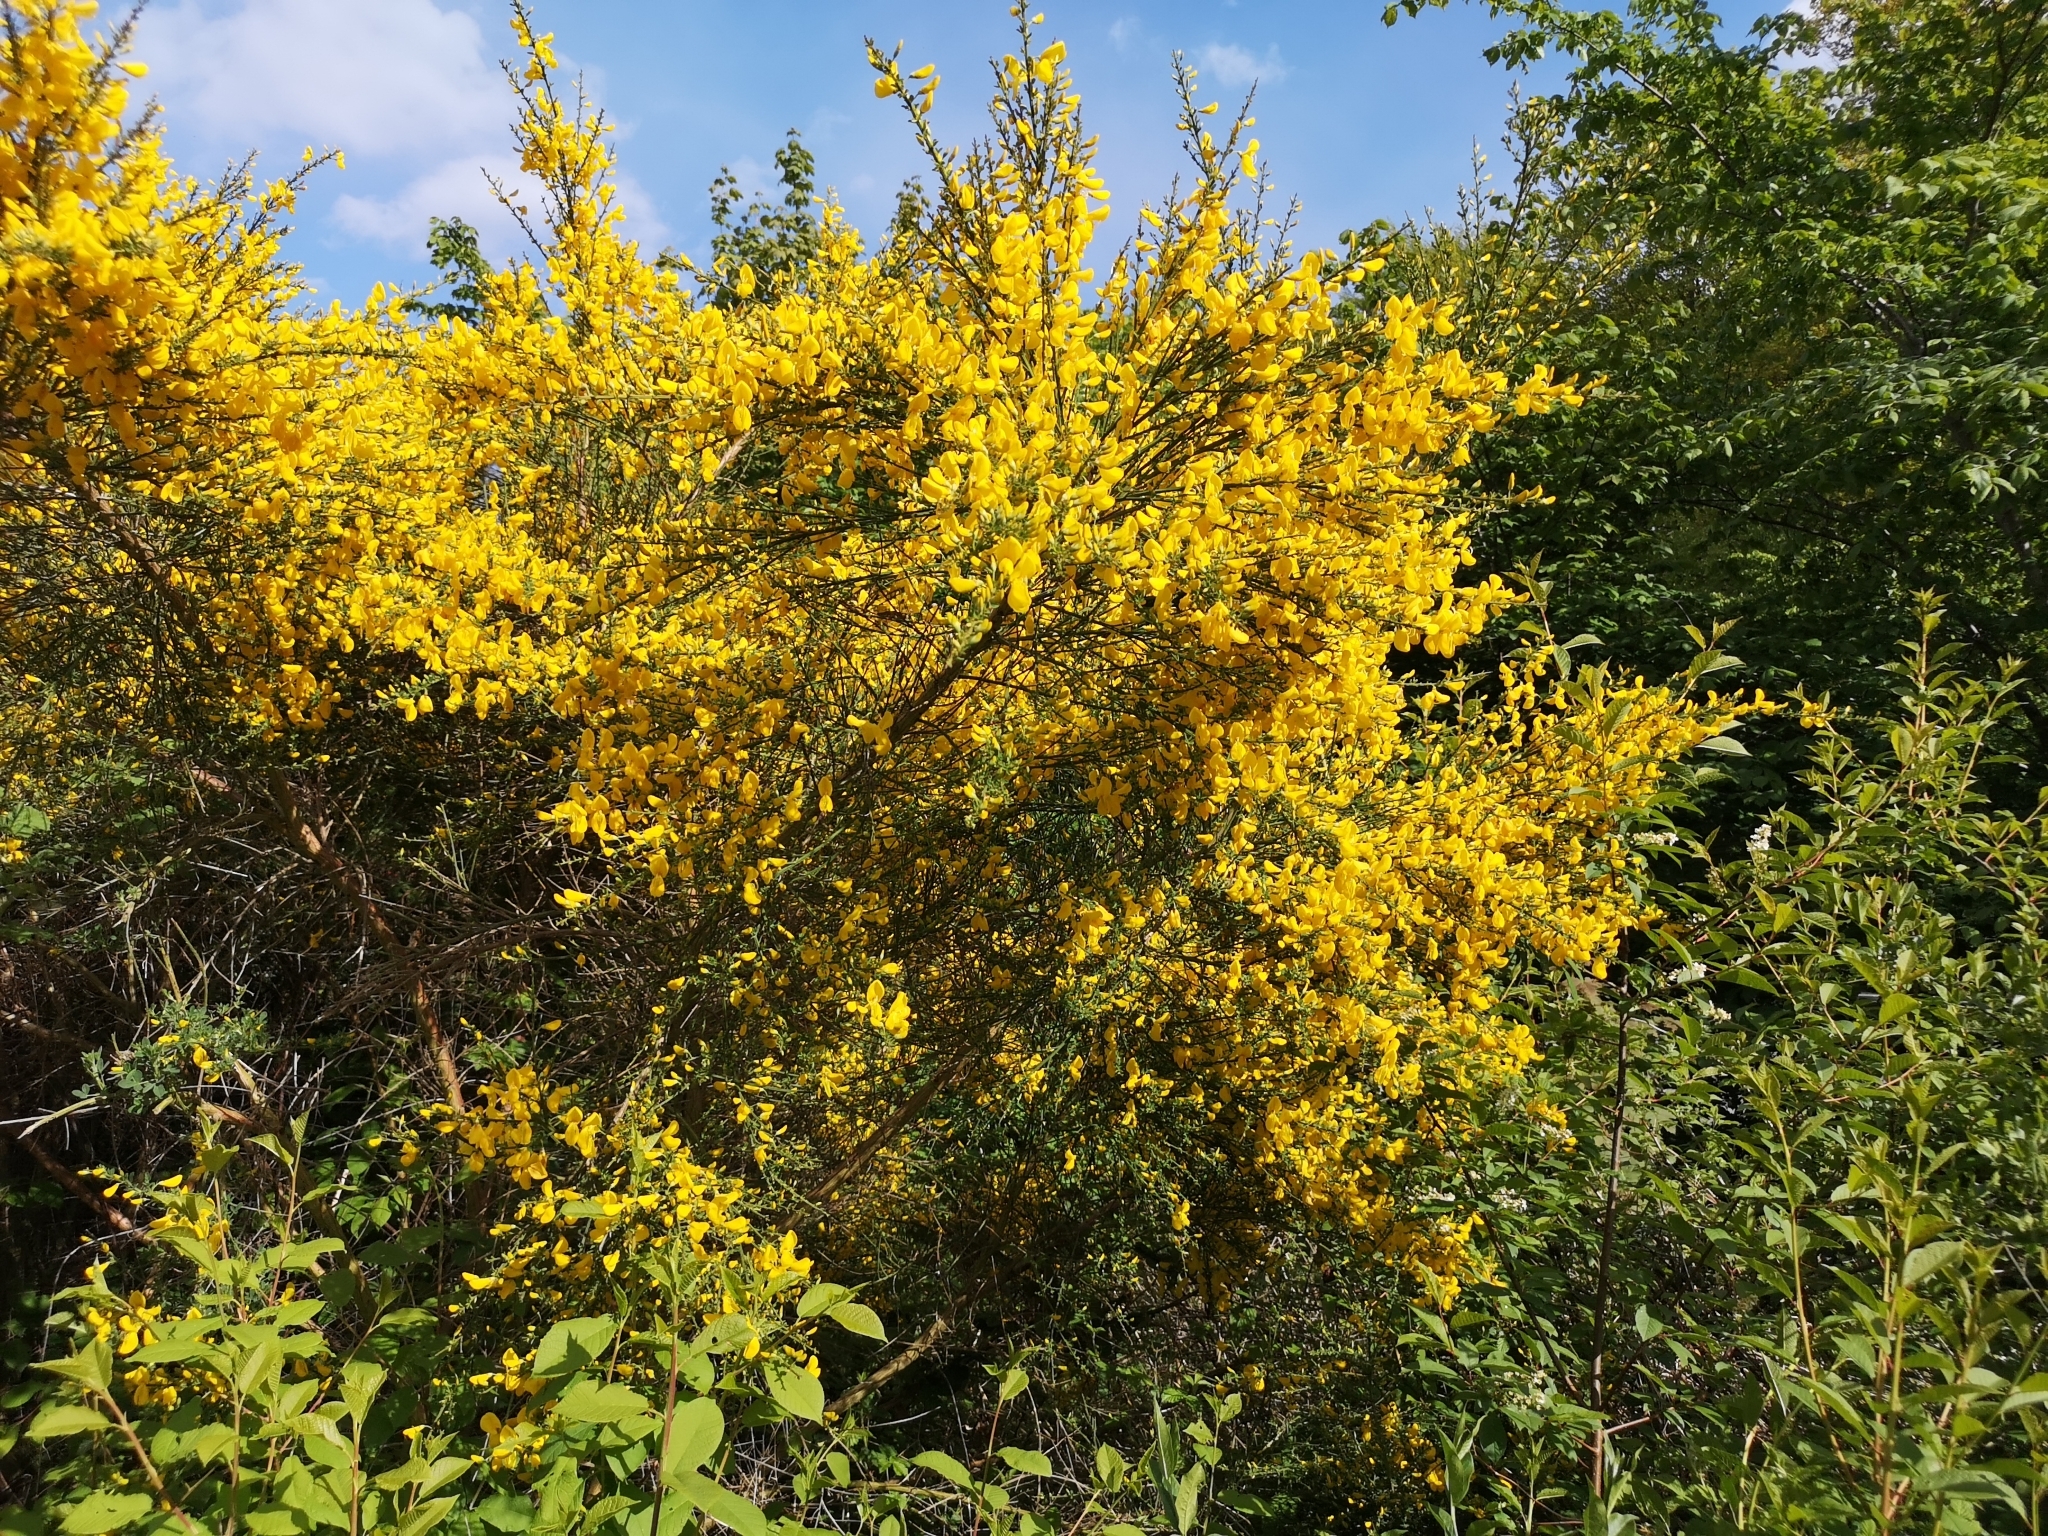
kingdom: Plantae
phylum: Tracheophyta
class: Magnoliopsida
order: Fabales
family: Fabaceae
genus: Cytisus
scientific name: Cytisus scoparius
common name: Scotch broom
